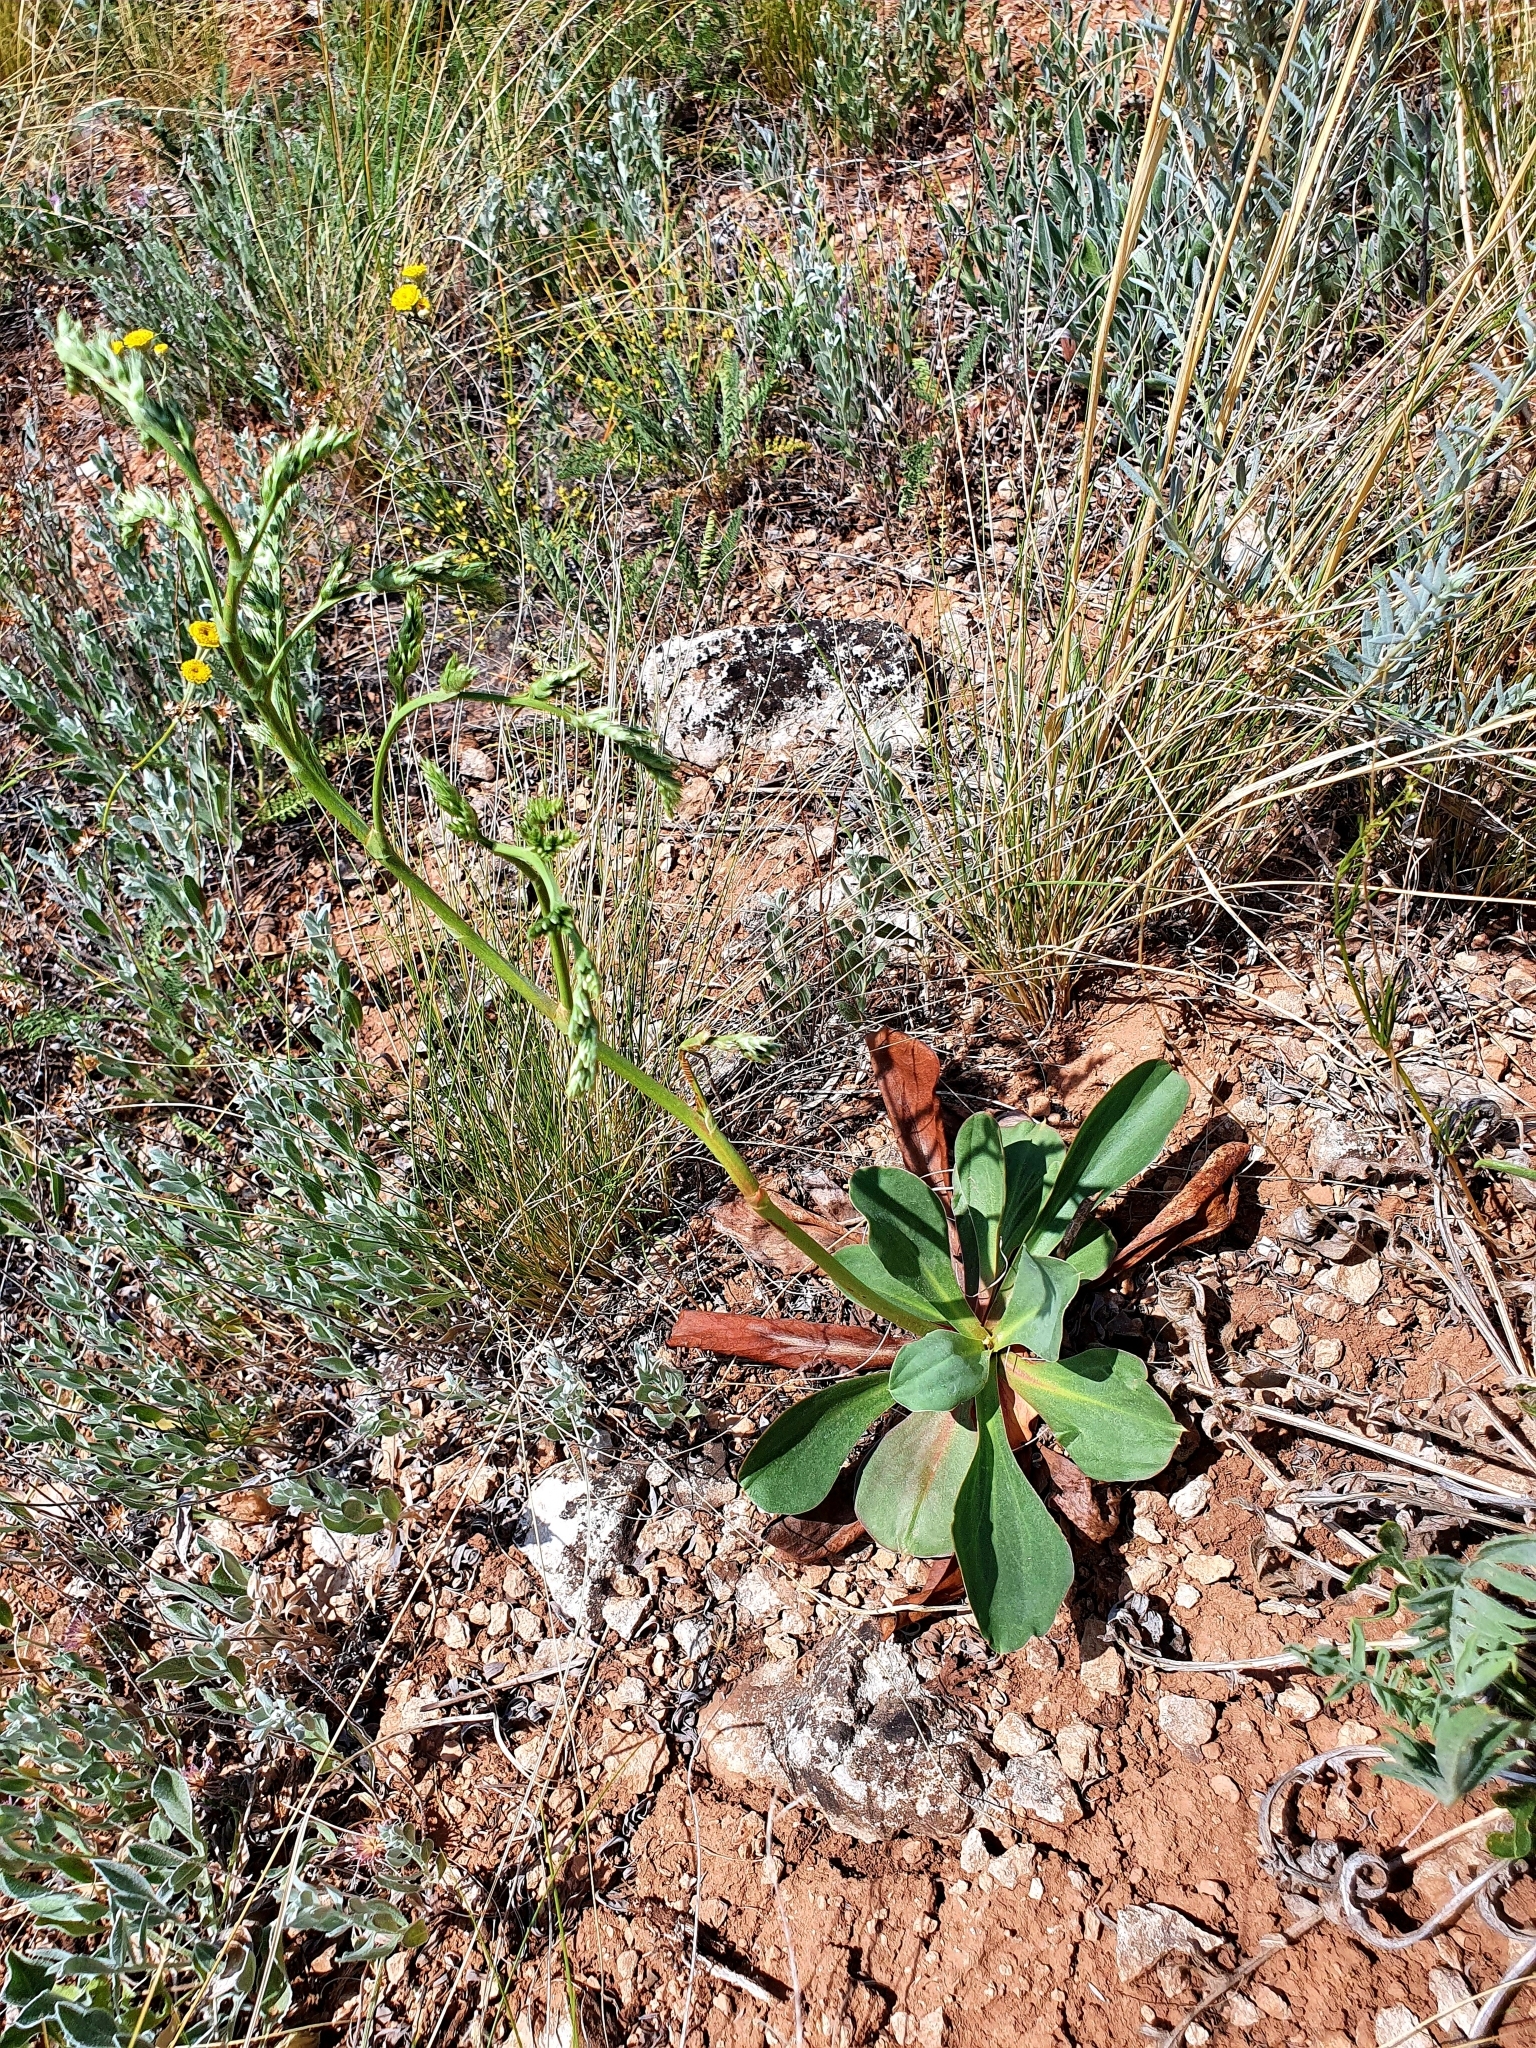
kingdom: Plantae
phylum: Tracheophyta
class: Magnoliopsida
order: Caryophyllales
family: Plumbaginaceae
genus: Goniolimon
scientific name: Goniolimon elatum
